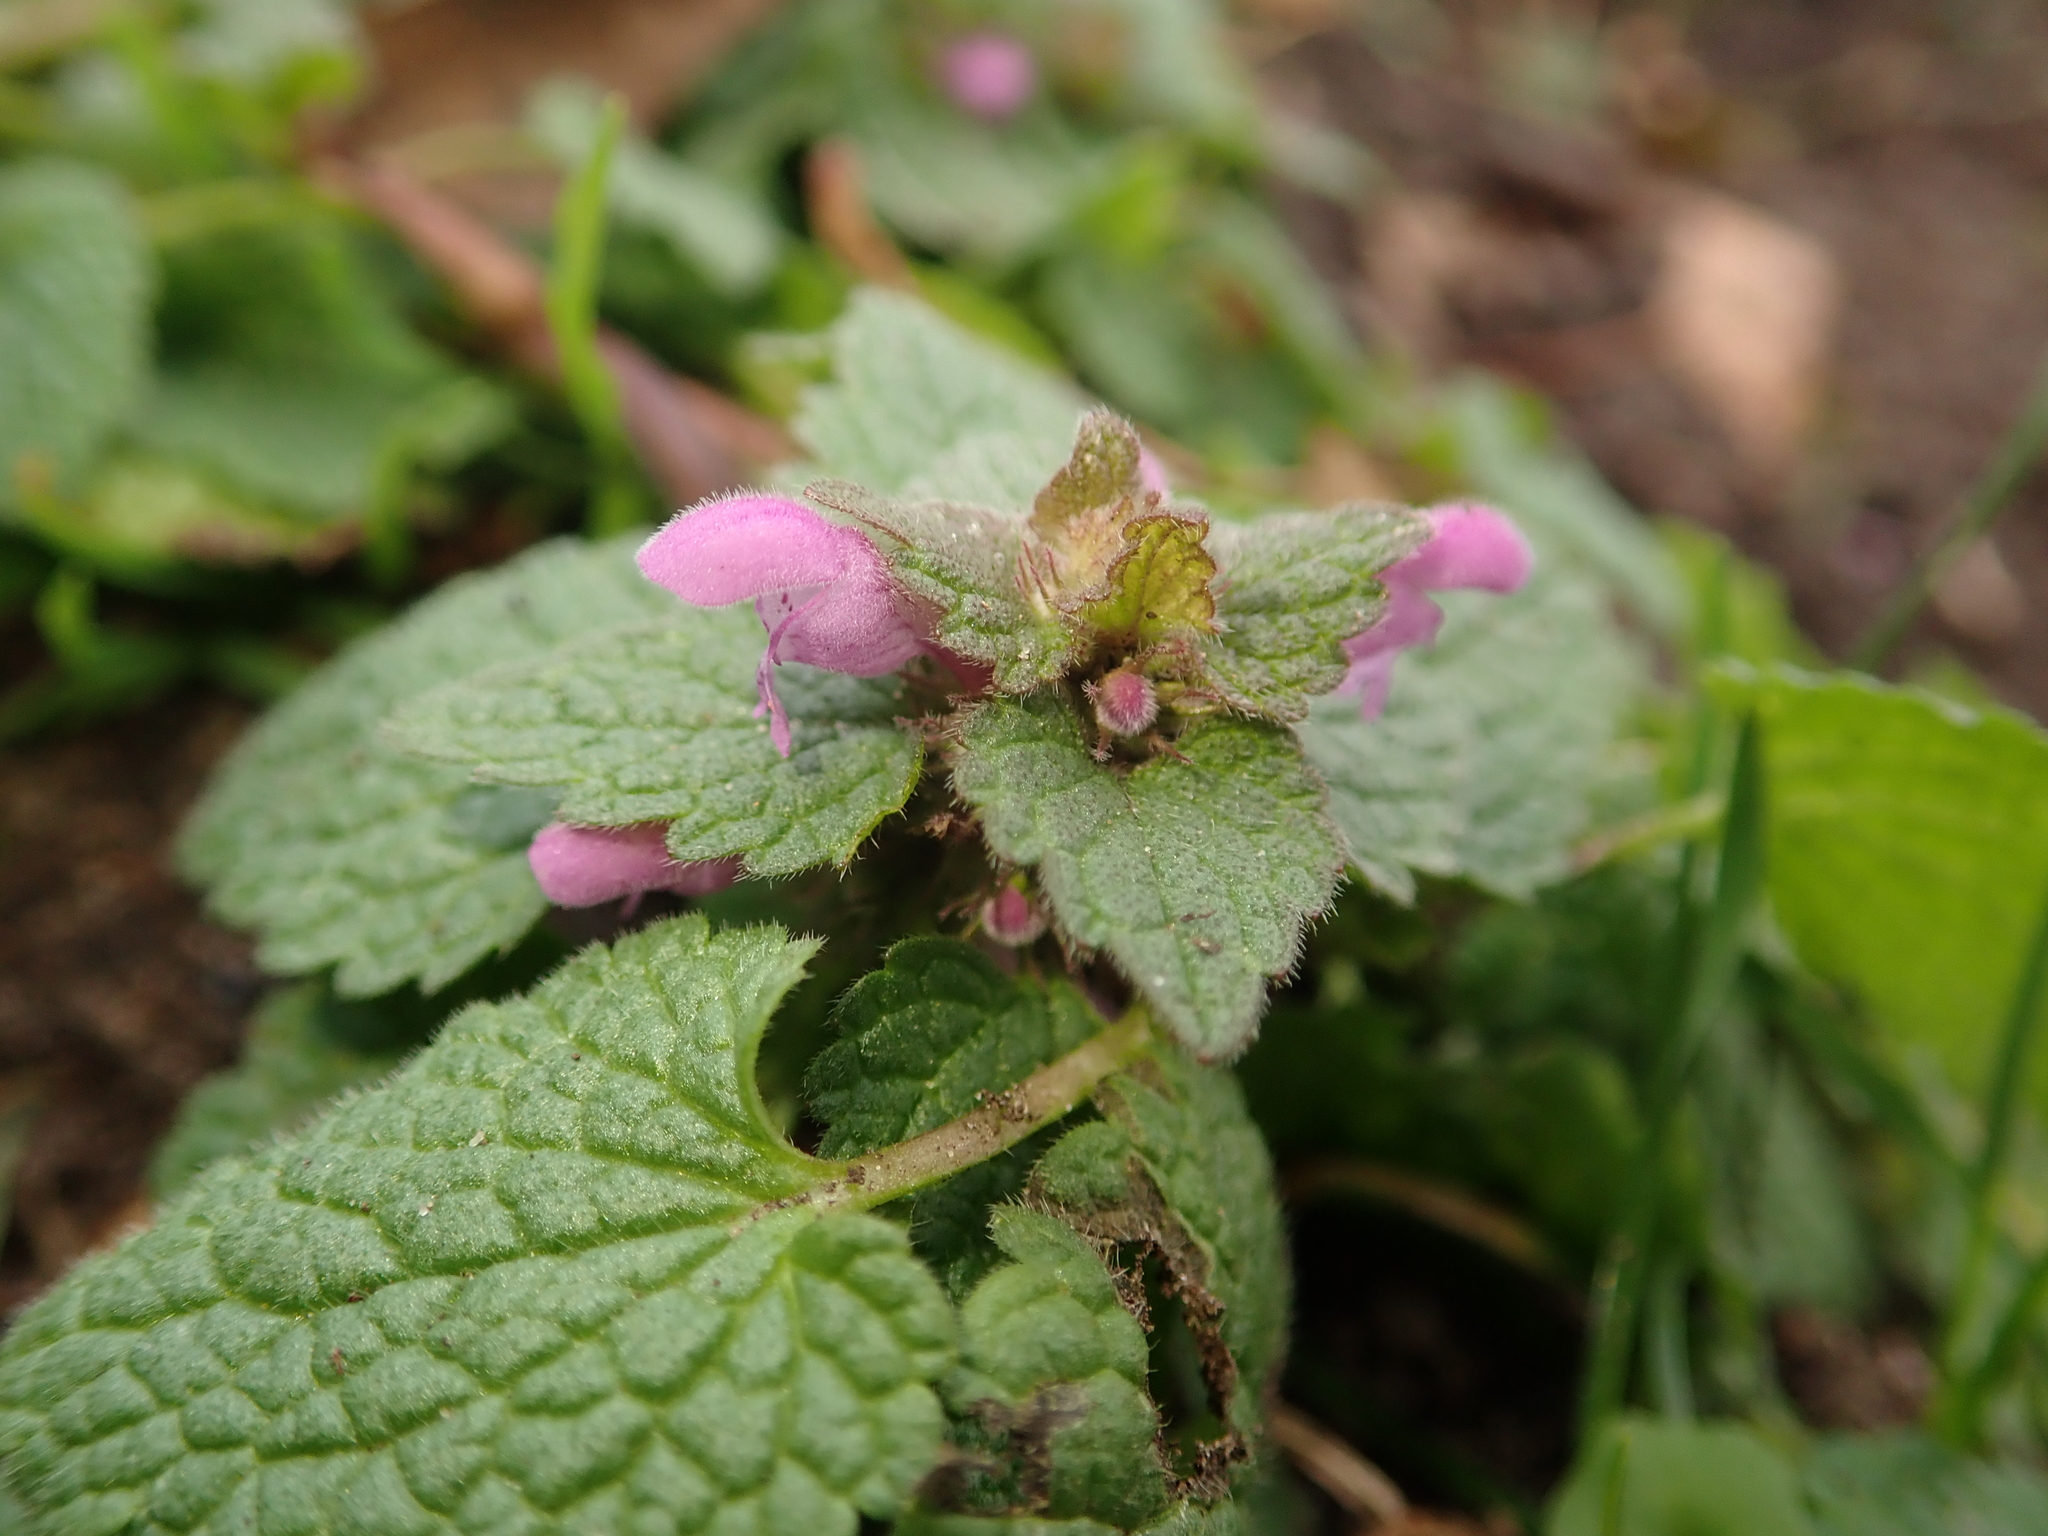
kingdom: Plantae
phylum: Tracheophyta
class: Magnoliopsida
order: Lamiales
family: Lamiaceae
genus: Lamium
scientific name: Lamium purpureum
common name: Red dead-nettle
